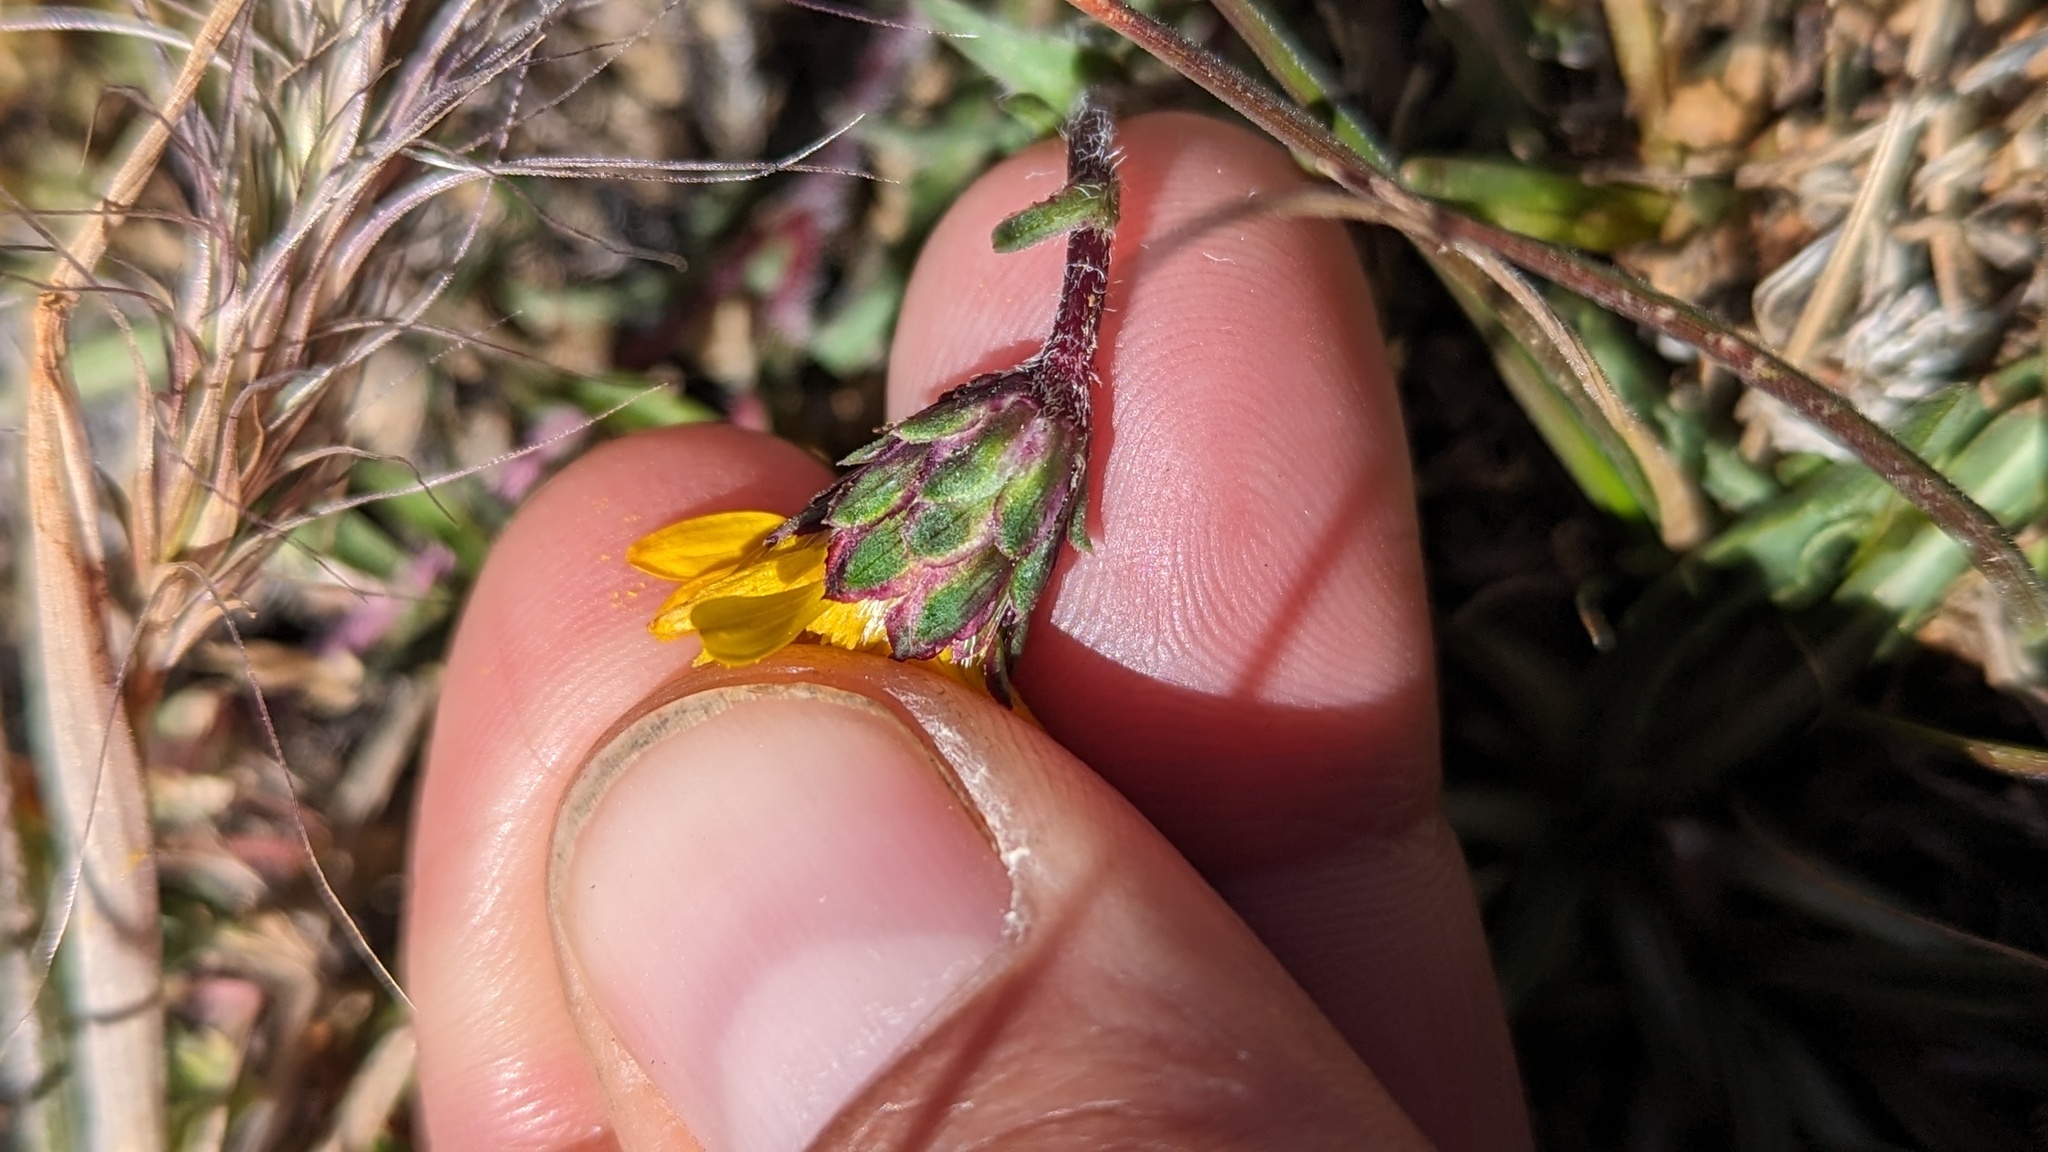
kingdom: Plantae
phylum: Tracheophyta
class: Magnoliopsida
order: Asterales
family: Asteraceae
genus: Pyrrocoma
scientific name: Pyrrocoma apargioides
